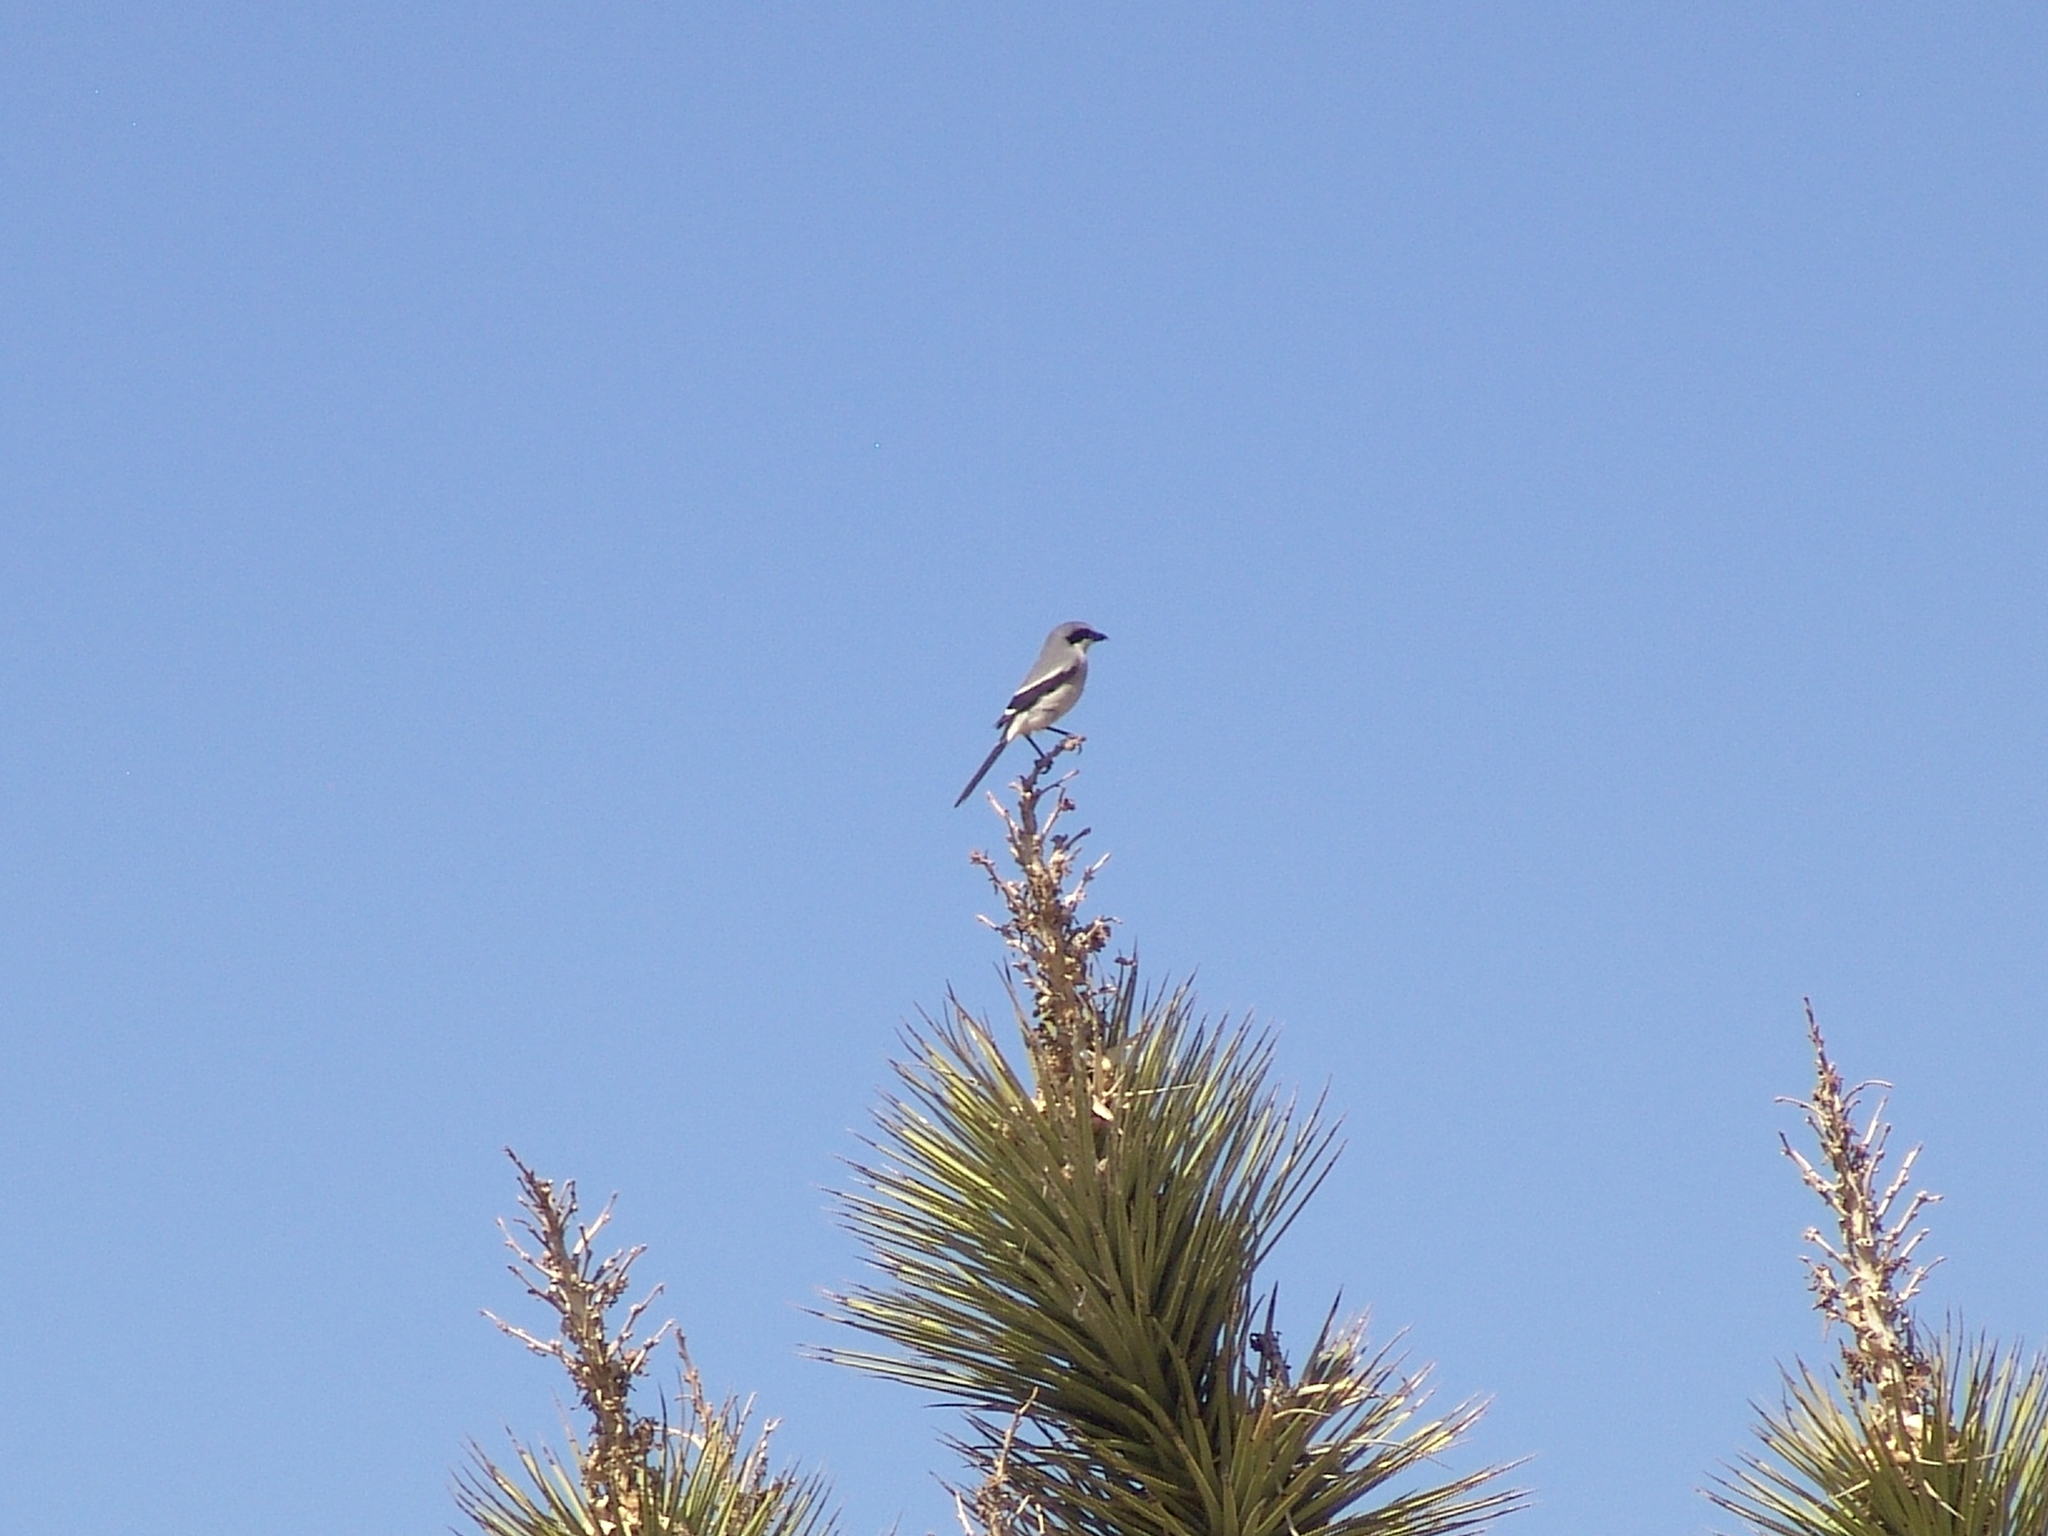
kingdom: Animalia
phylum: Chordata
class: Aves
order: Passeriformes
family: Laniidae
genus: Lanius
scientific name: Lanius ludovicianus
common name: Loggerhead shrike
